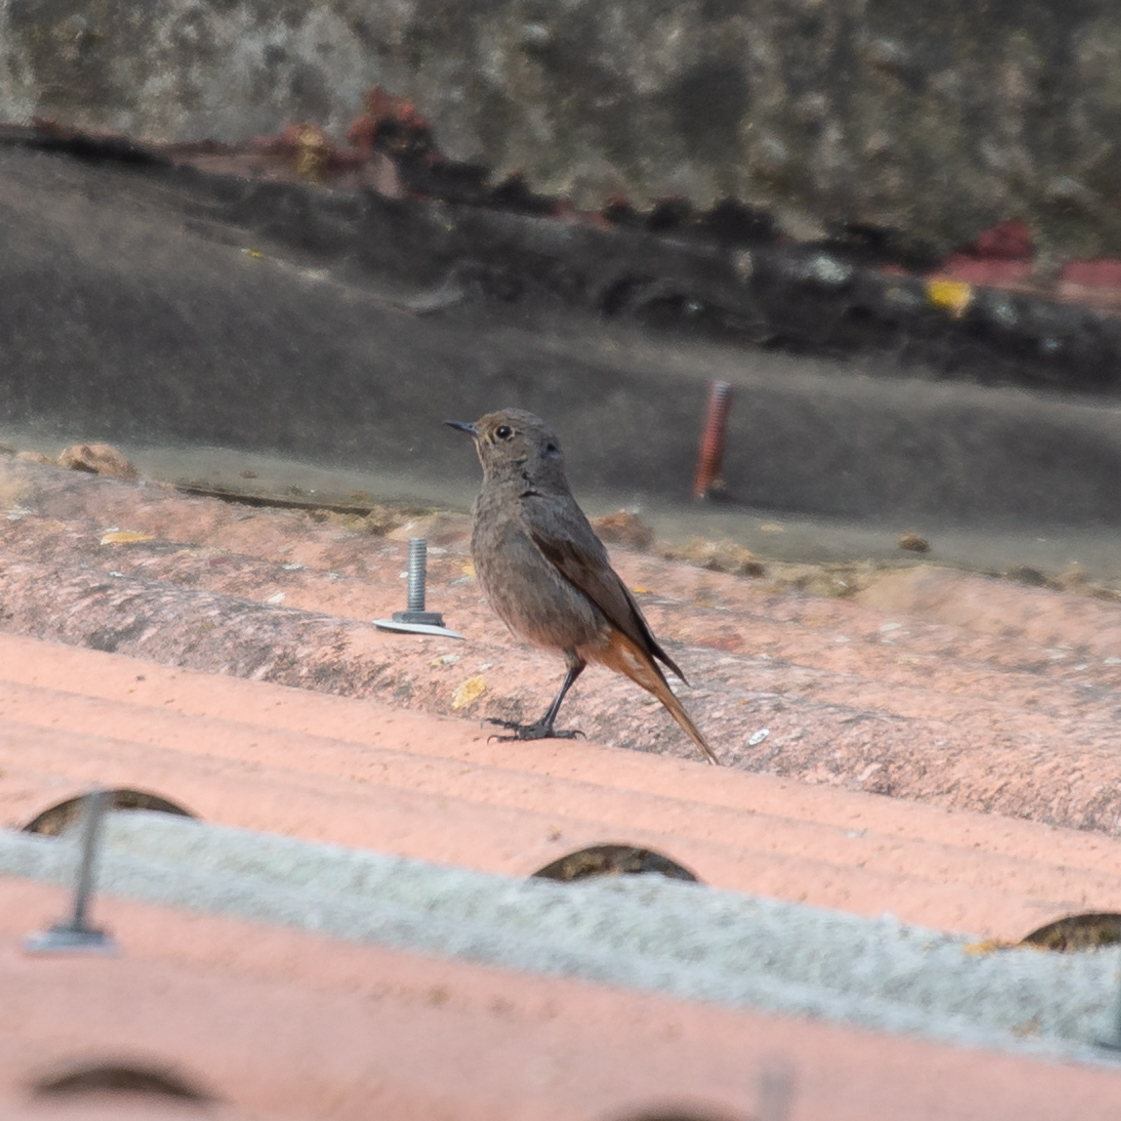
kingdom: Animalia
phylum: Chordata
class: Aves
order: Passeriformes
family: Muscicapidae
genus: Phoenicurus
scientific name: Phoenicurus ochruros
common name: Black redstart
